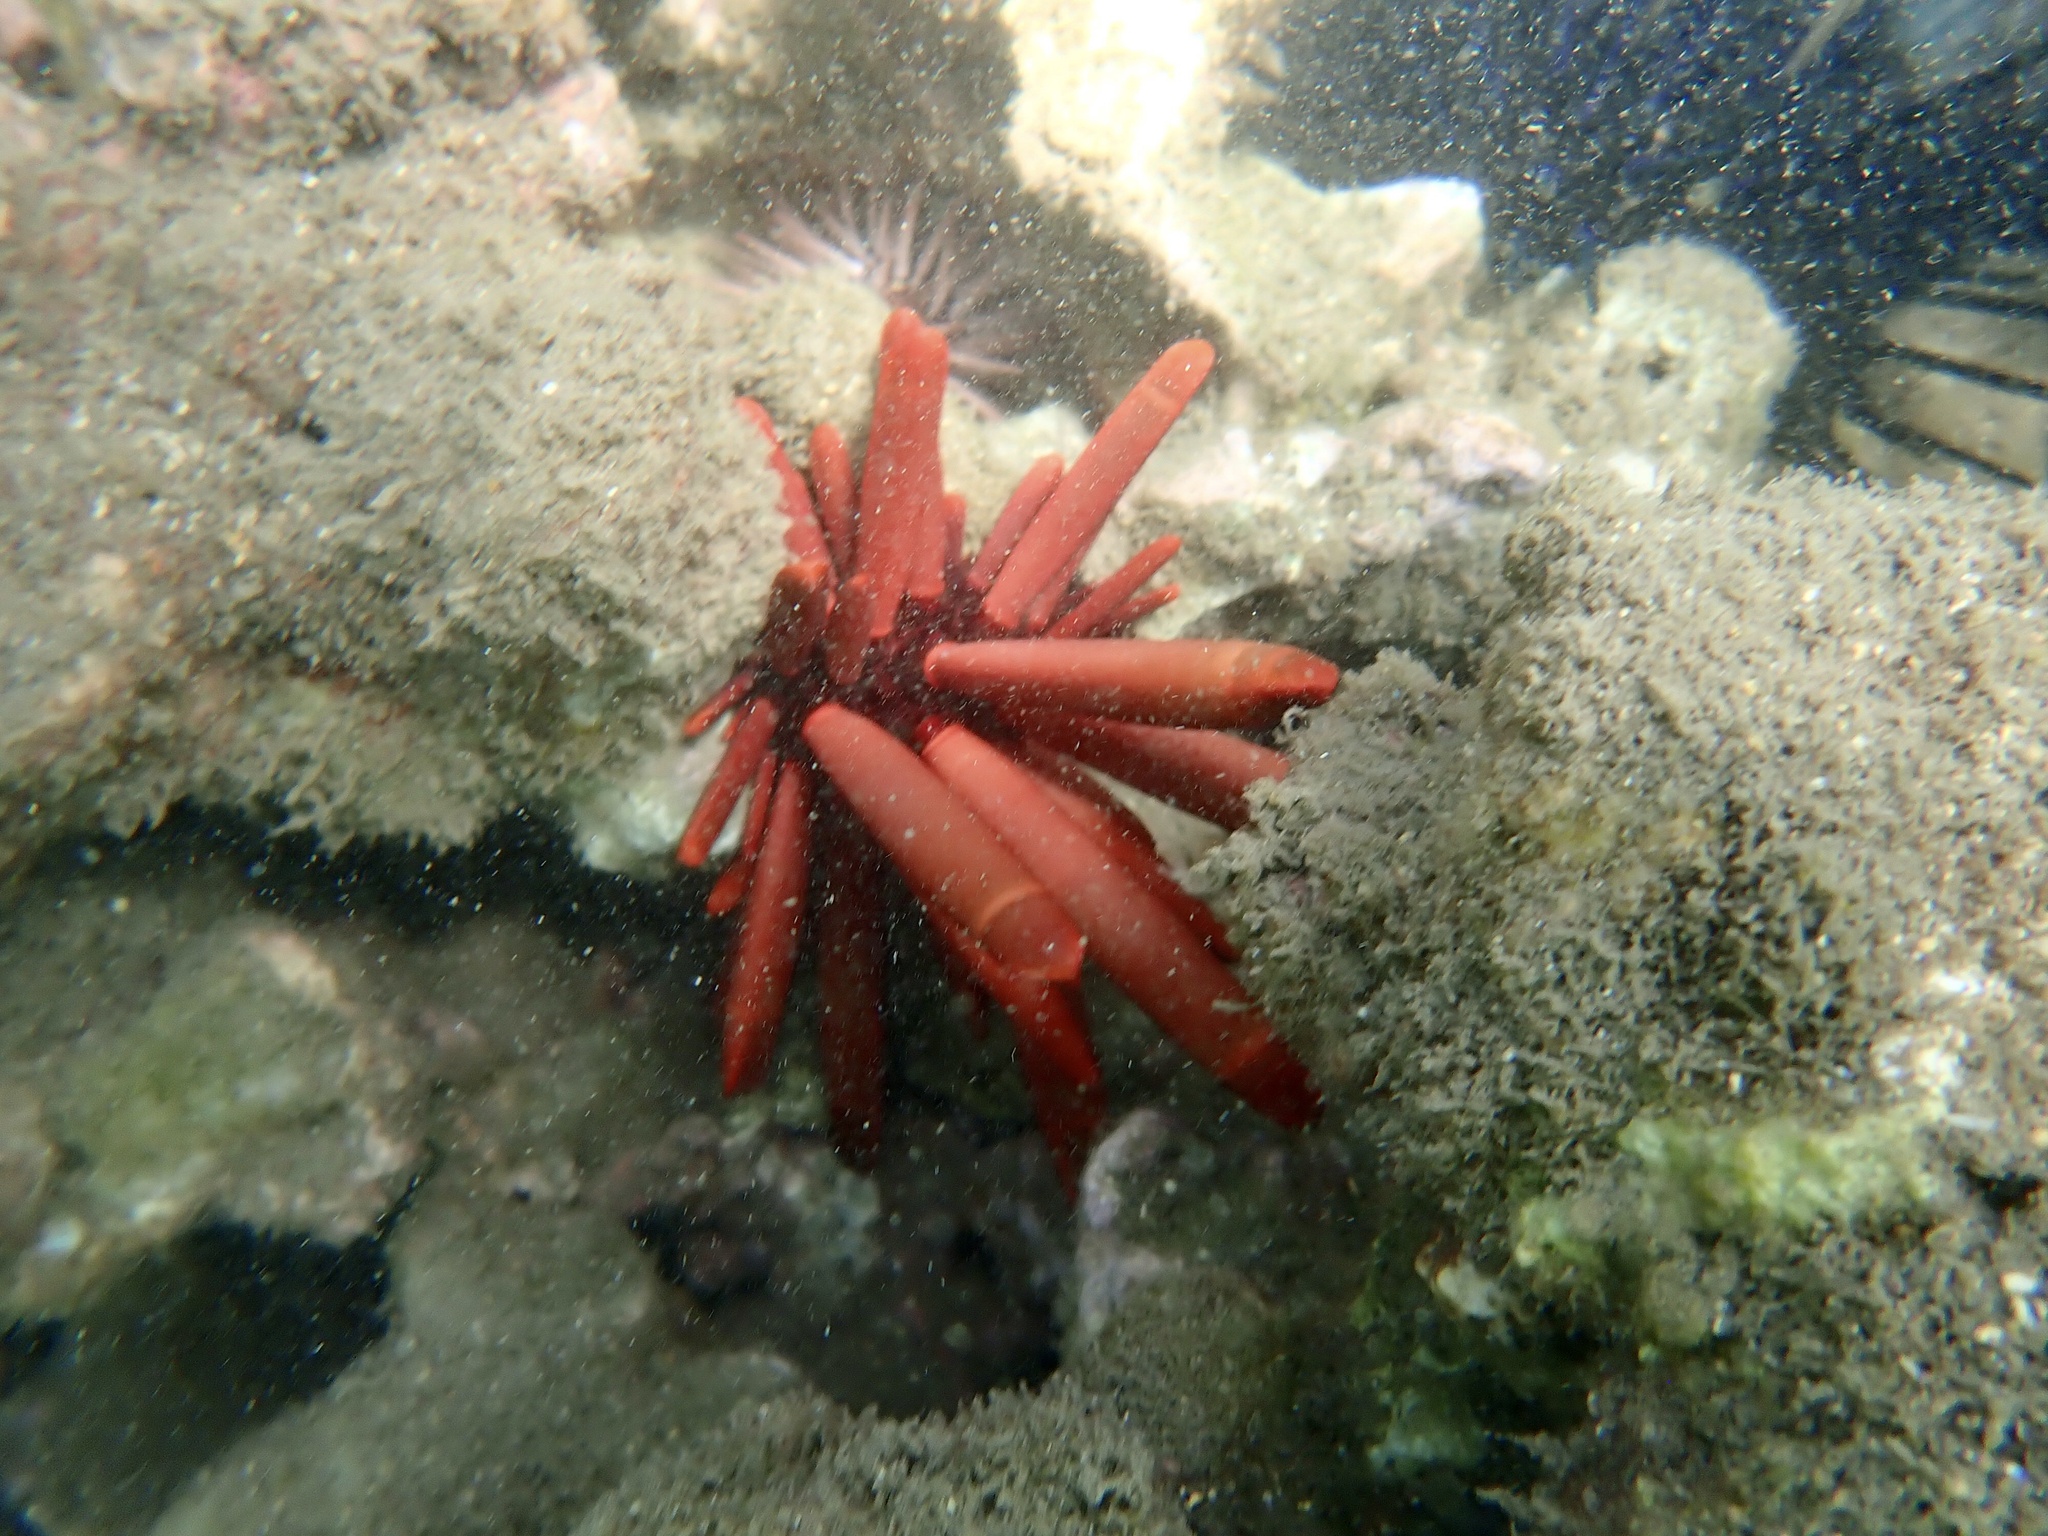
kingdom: Animalia
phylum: Echinodermata
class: Echinoidea
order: Camarodonta
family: Echinometridae
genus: Heterocentrotus
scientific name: Heterocentrotus mamillatus
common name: Slate pencil urchin
